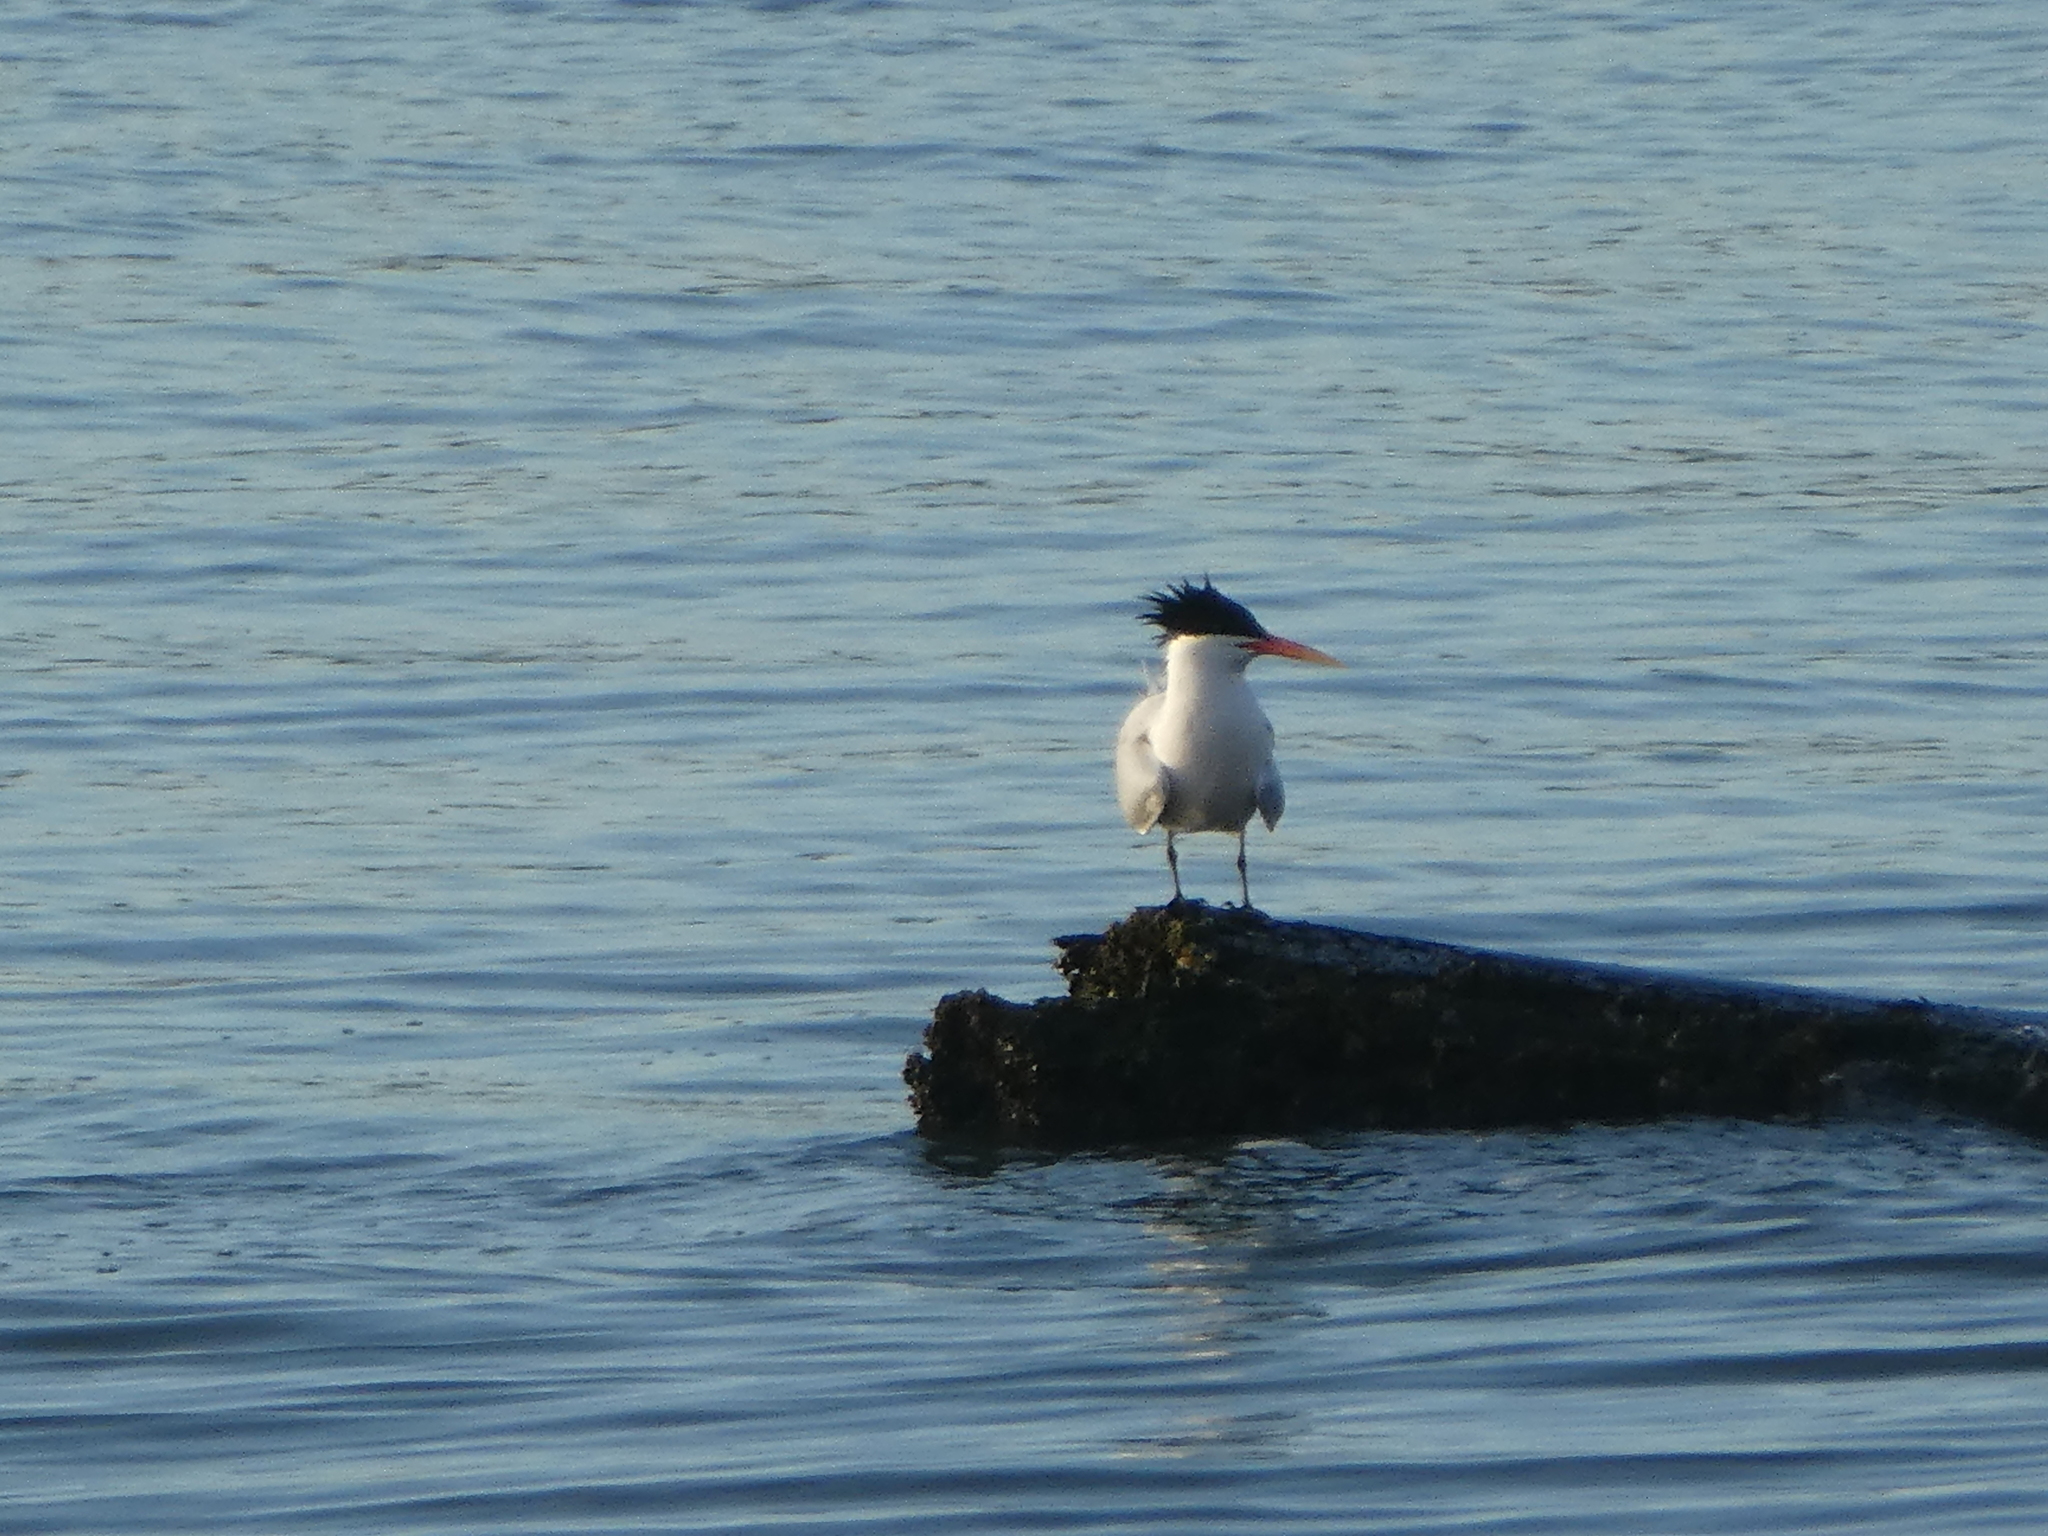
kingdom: Animalia
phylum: Chordata
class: Aves
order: Charadriiformes
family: Laridae
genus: Thalasseus
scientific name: Thalasseus elegans
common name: Elegant tern
